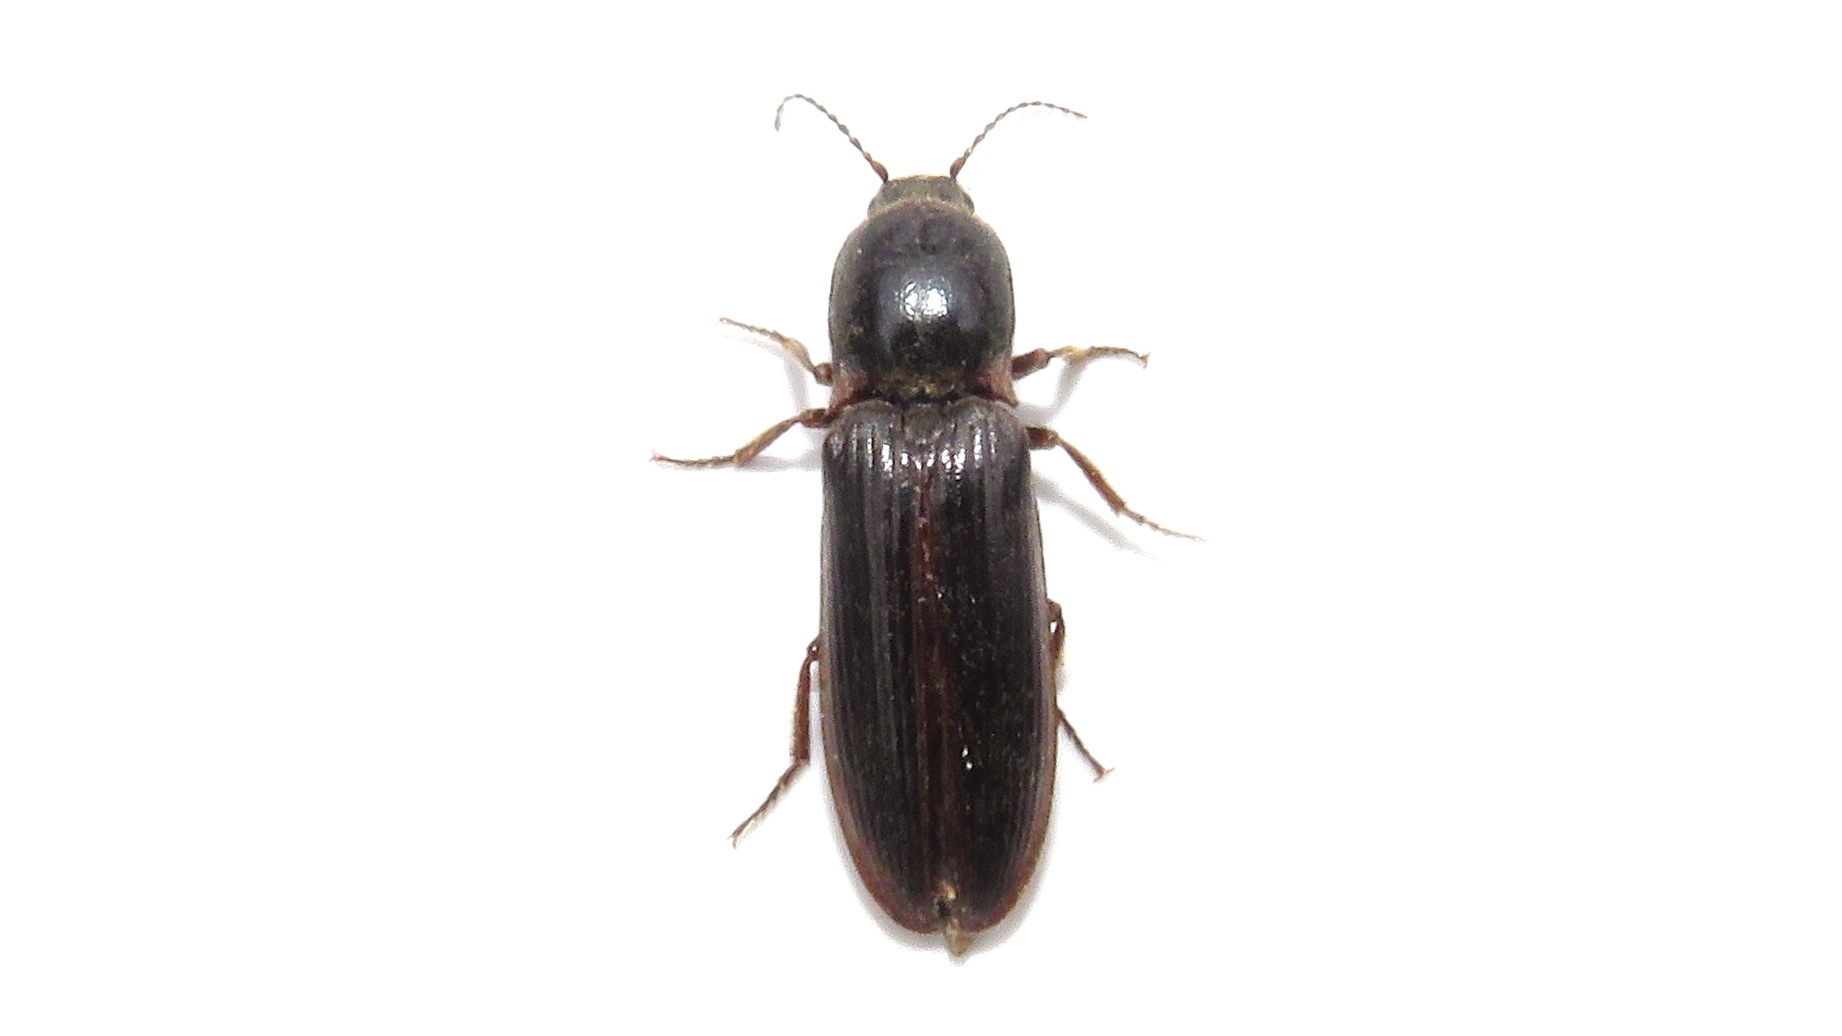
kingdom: Animalia
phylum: Arthropoda
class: Insecta
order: Coleoptera
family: Elateridae
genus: Sylvanelater
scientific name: Sylvanelater cylindriformis
